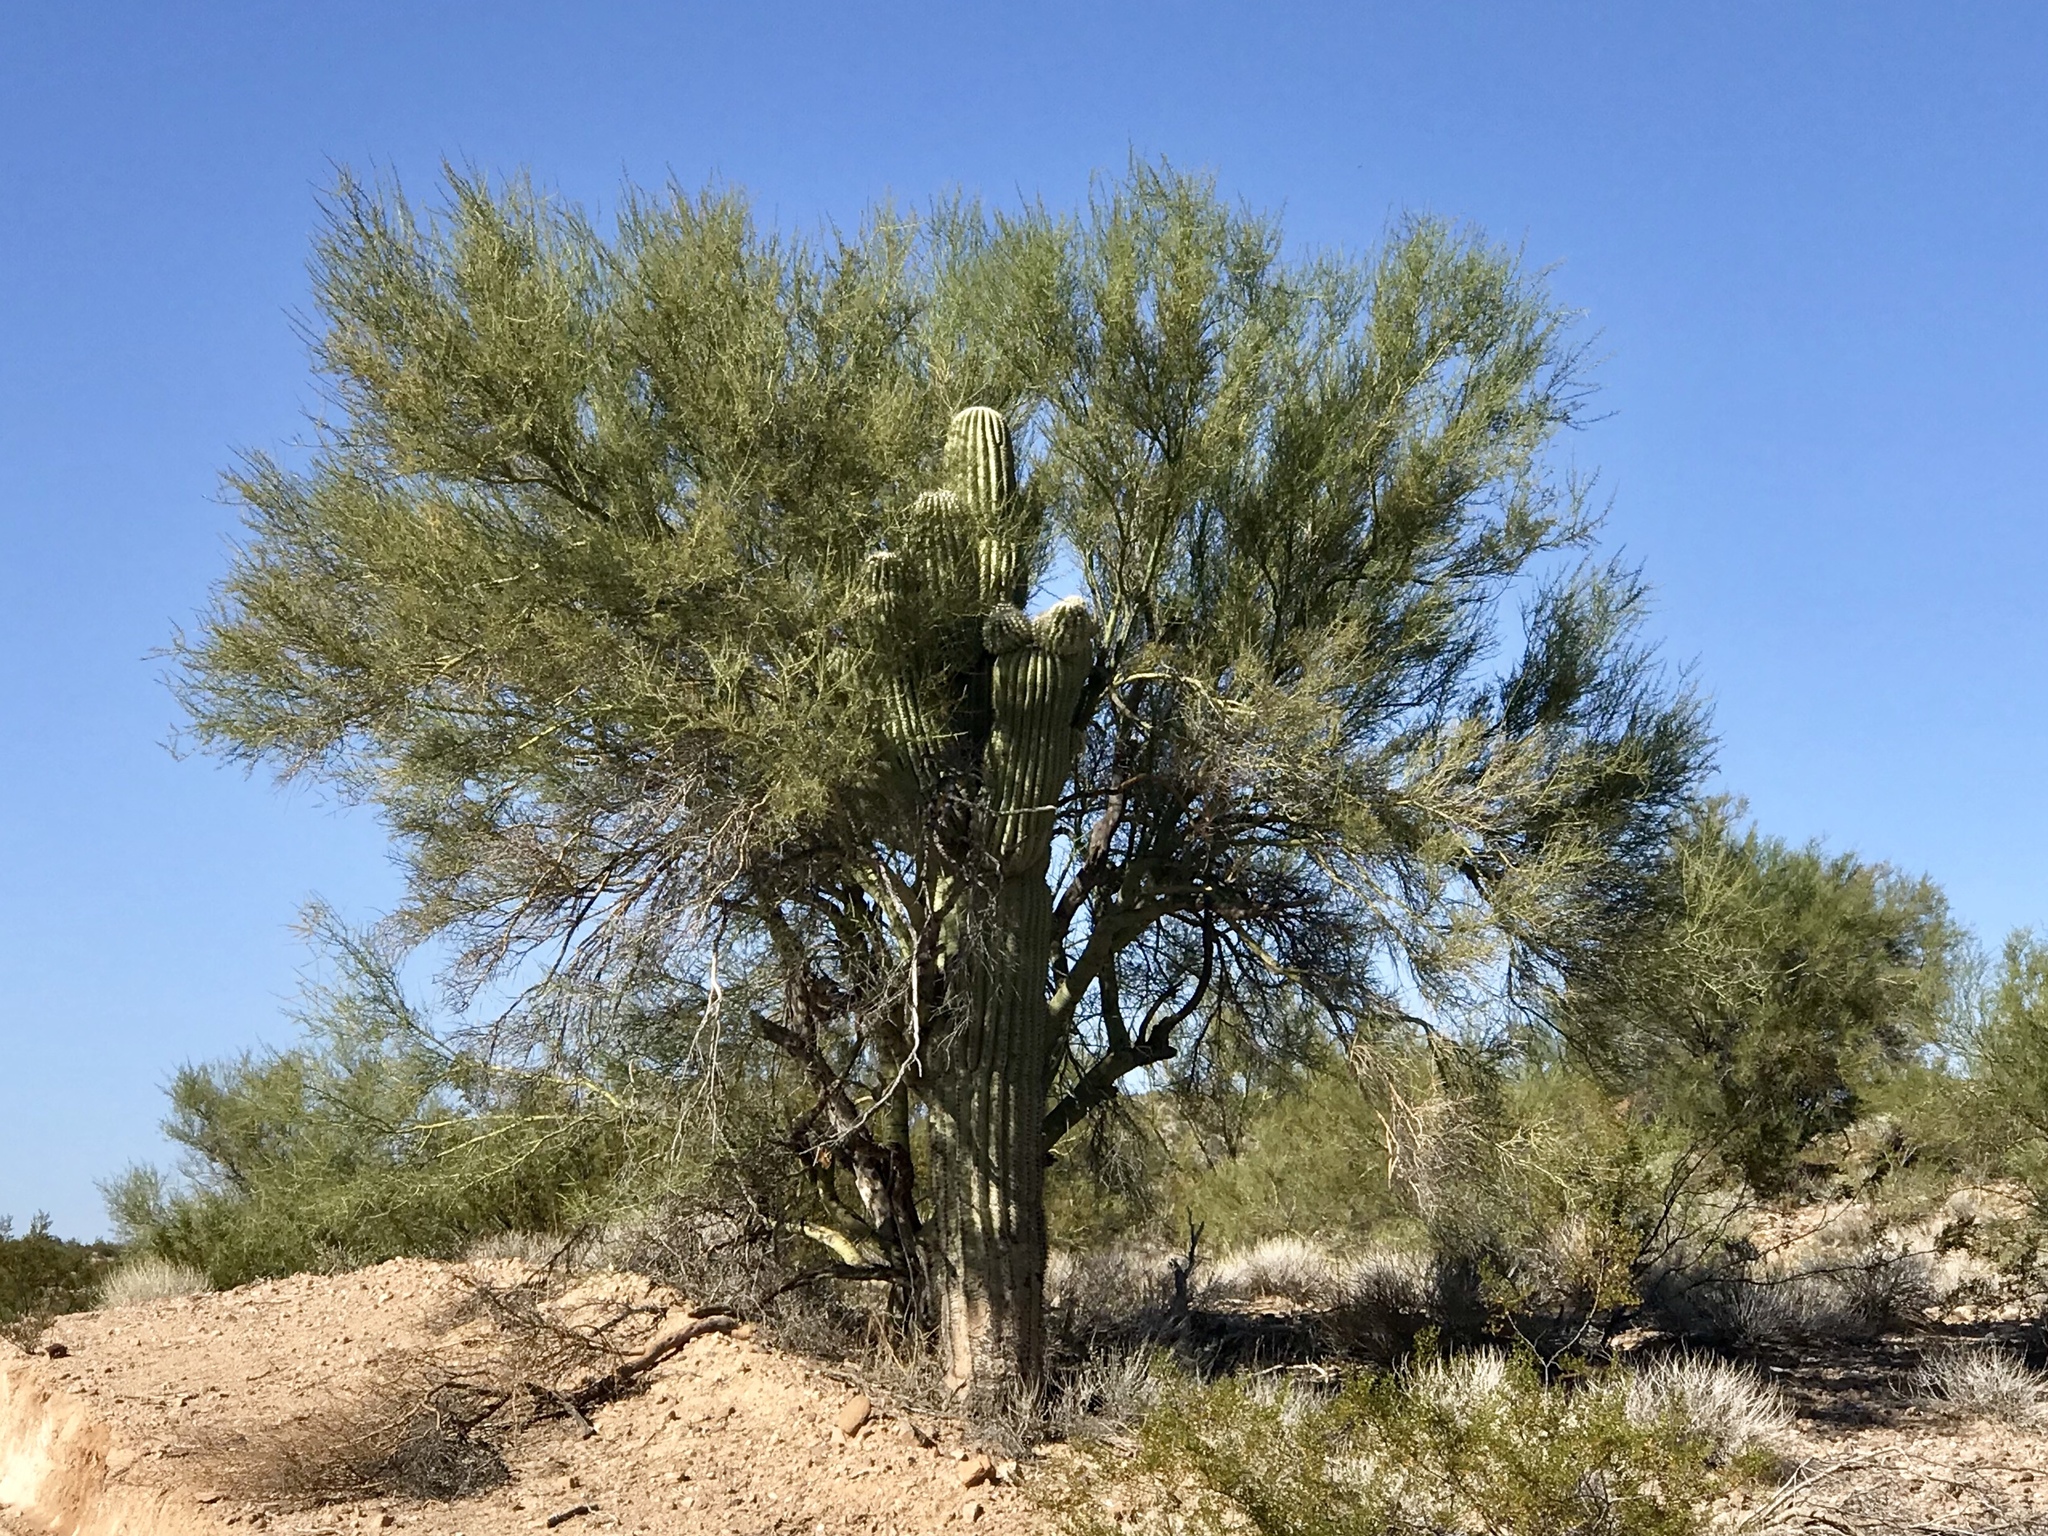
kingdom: Plantae
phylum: Tracheophyta
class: Magnoliopsida
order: Fabales
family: Fabaceae
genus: Parkinsonia
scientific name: Parkinsonia microphylla
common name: Yellow paloverde
